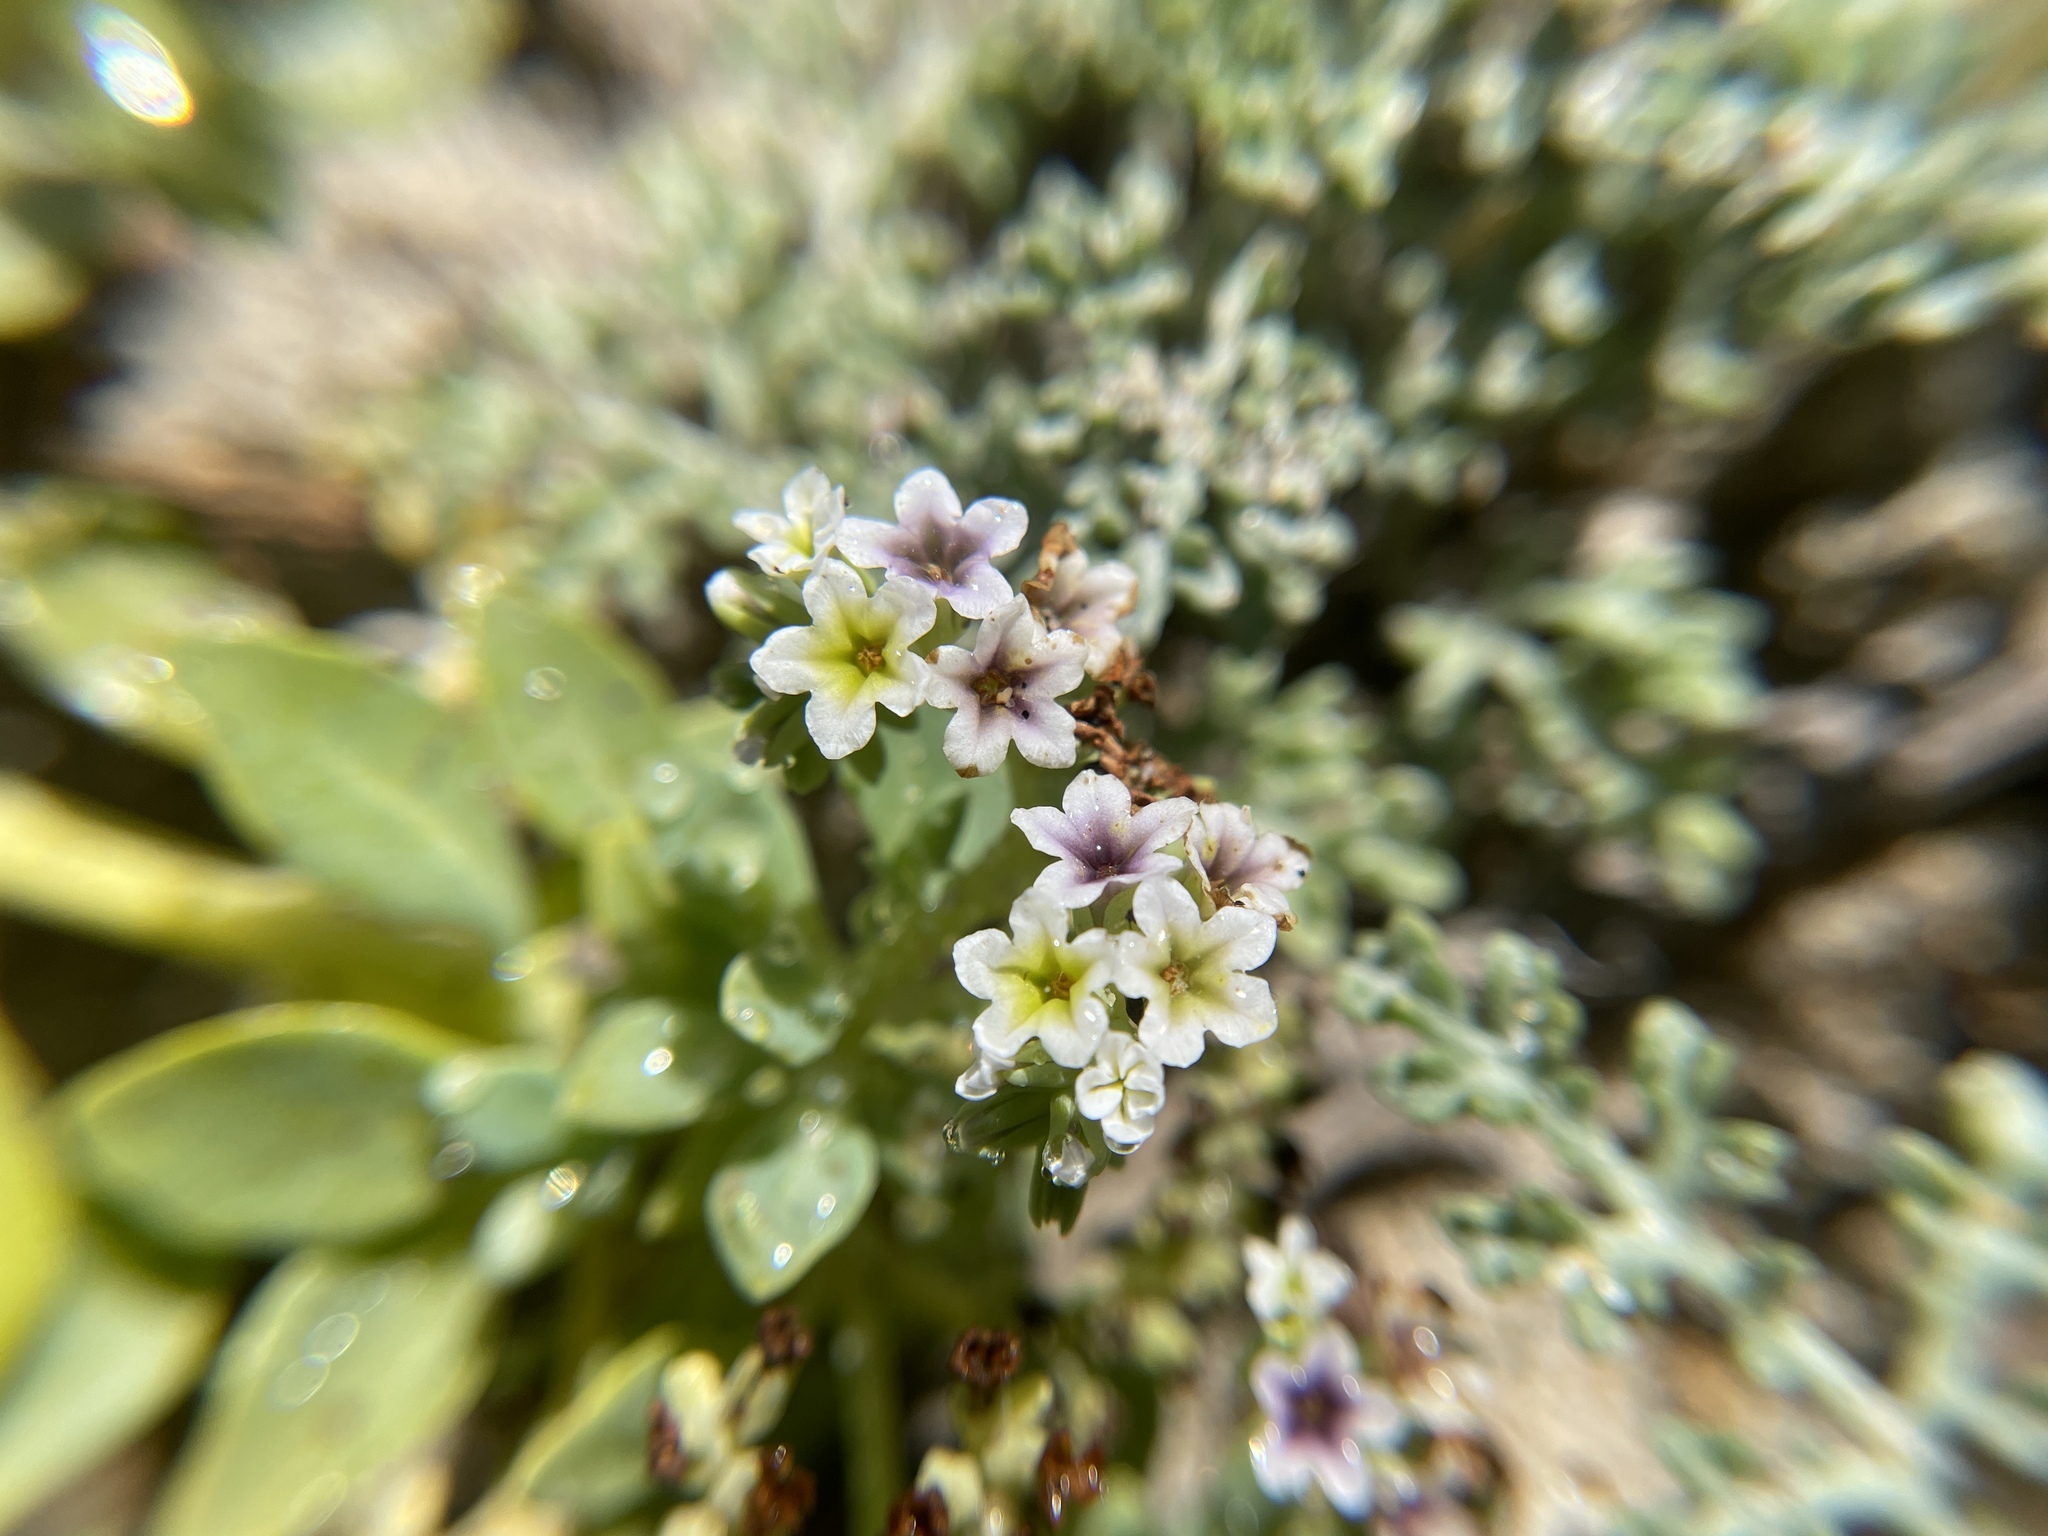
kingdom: Plantae
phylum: Tracheophyta
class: Magnoliopsida
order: Boraginales
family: Heliotropiaceae
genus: Heliotropium
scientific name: Heliotropium curassavicum
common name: Seaside heliotrope
